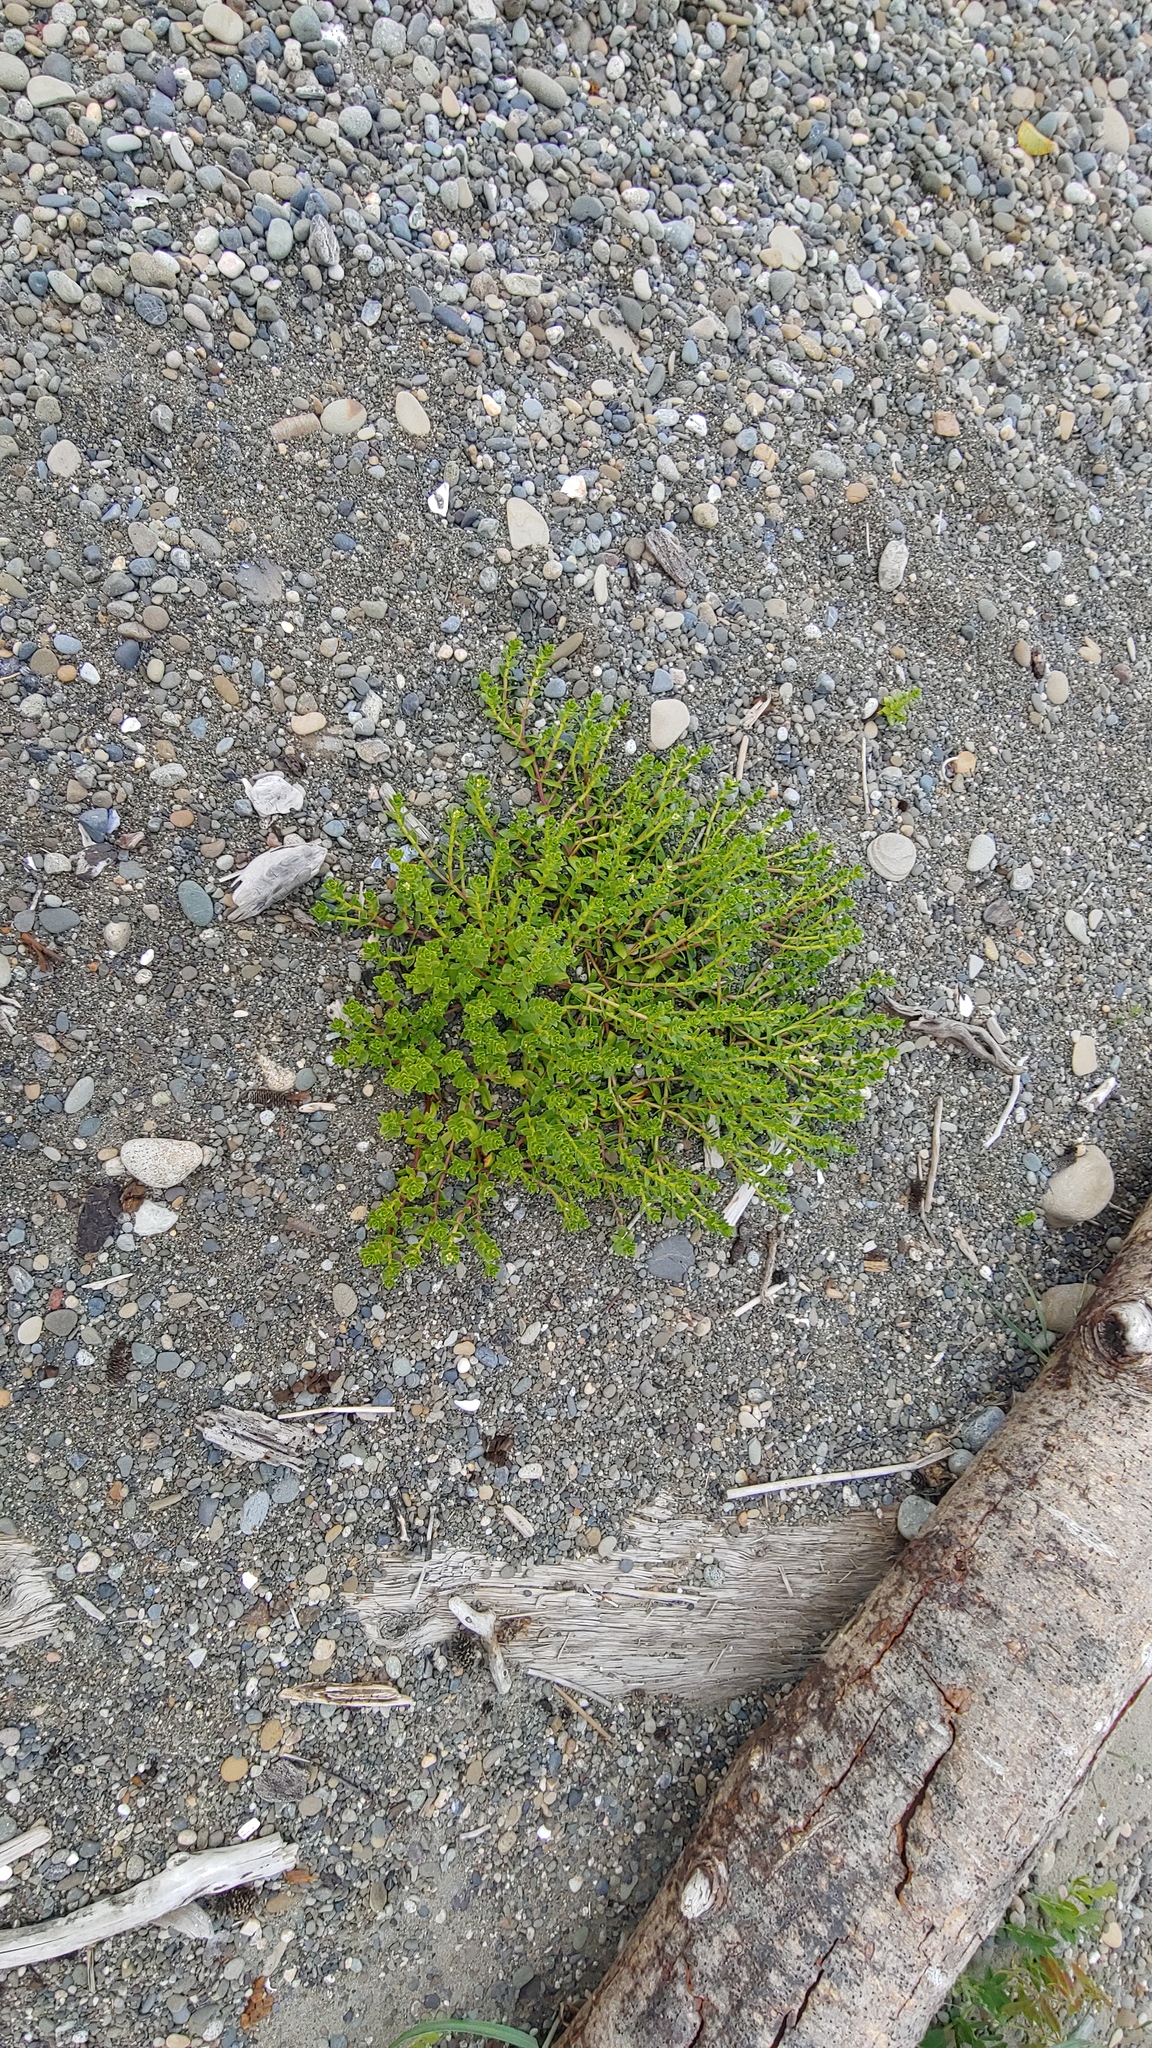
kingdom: Plantae
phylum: Tracheophyta
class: Magnoliopsida
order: Caryophyllales
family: Caryophyllaceae
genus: Honckenya
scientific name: Honckenya peploides
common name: Sea sandwort
